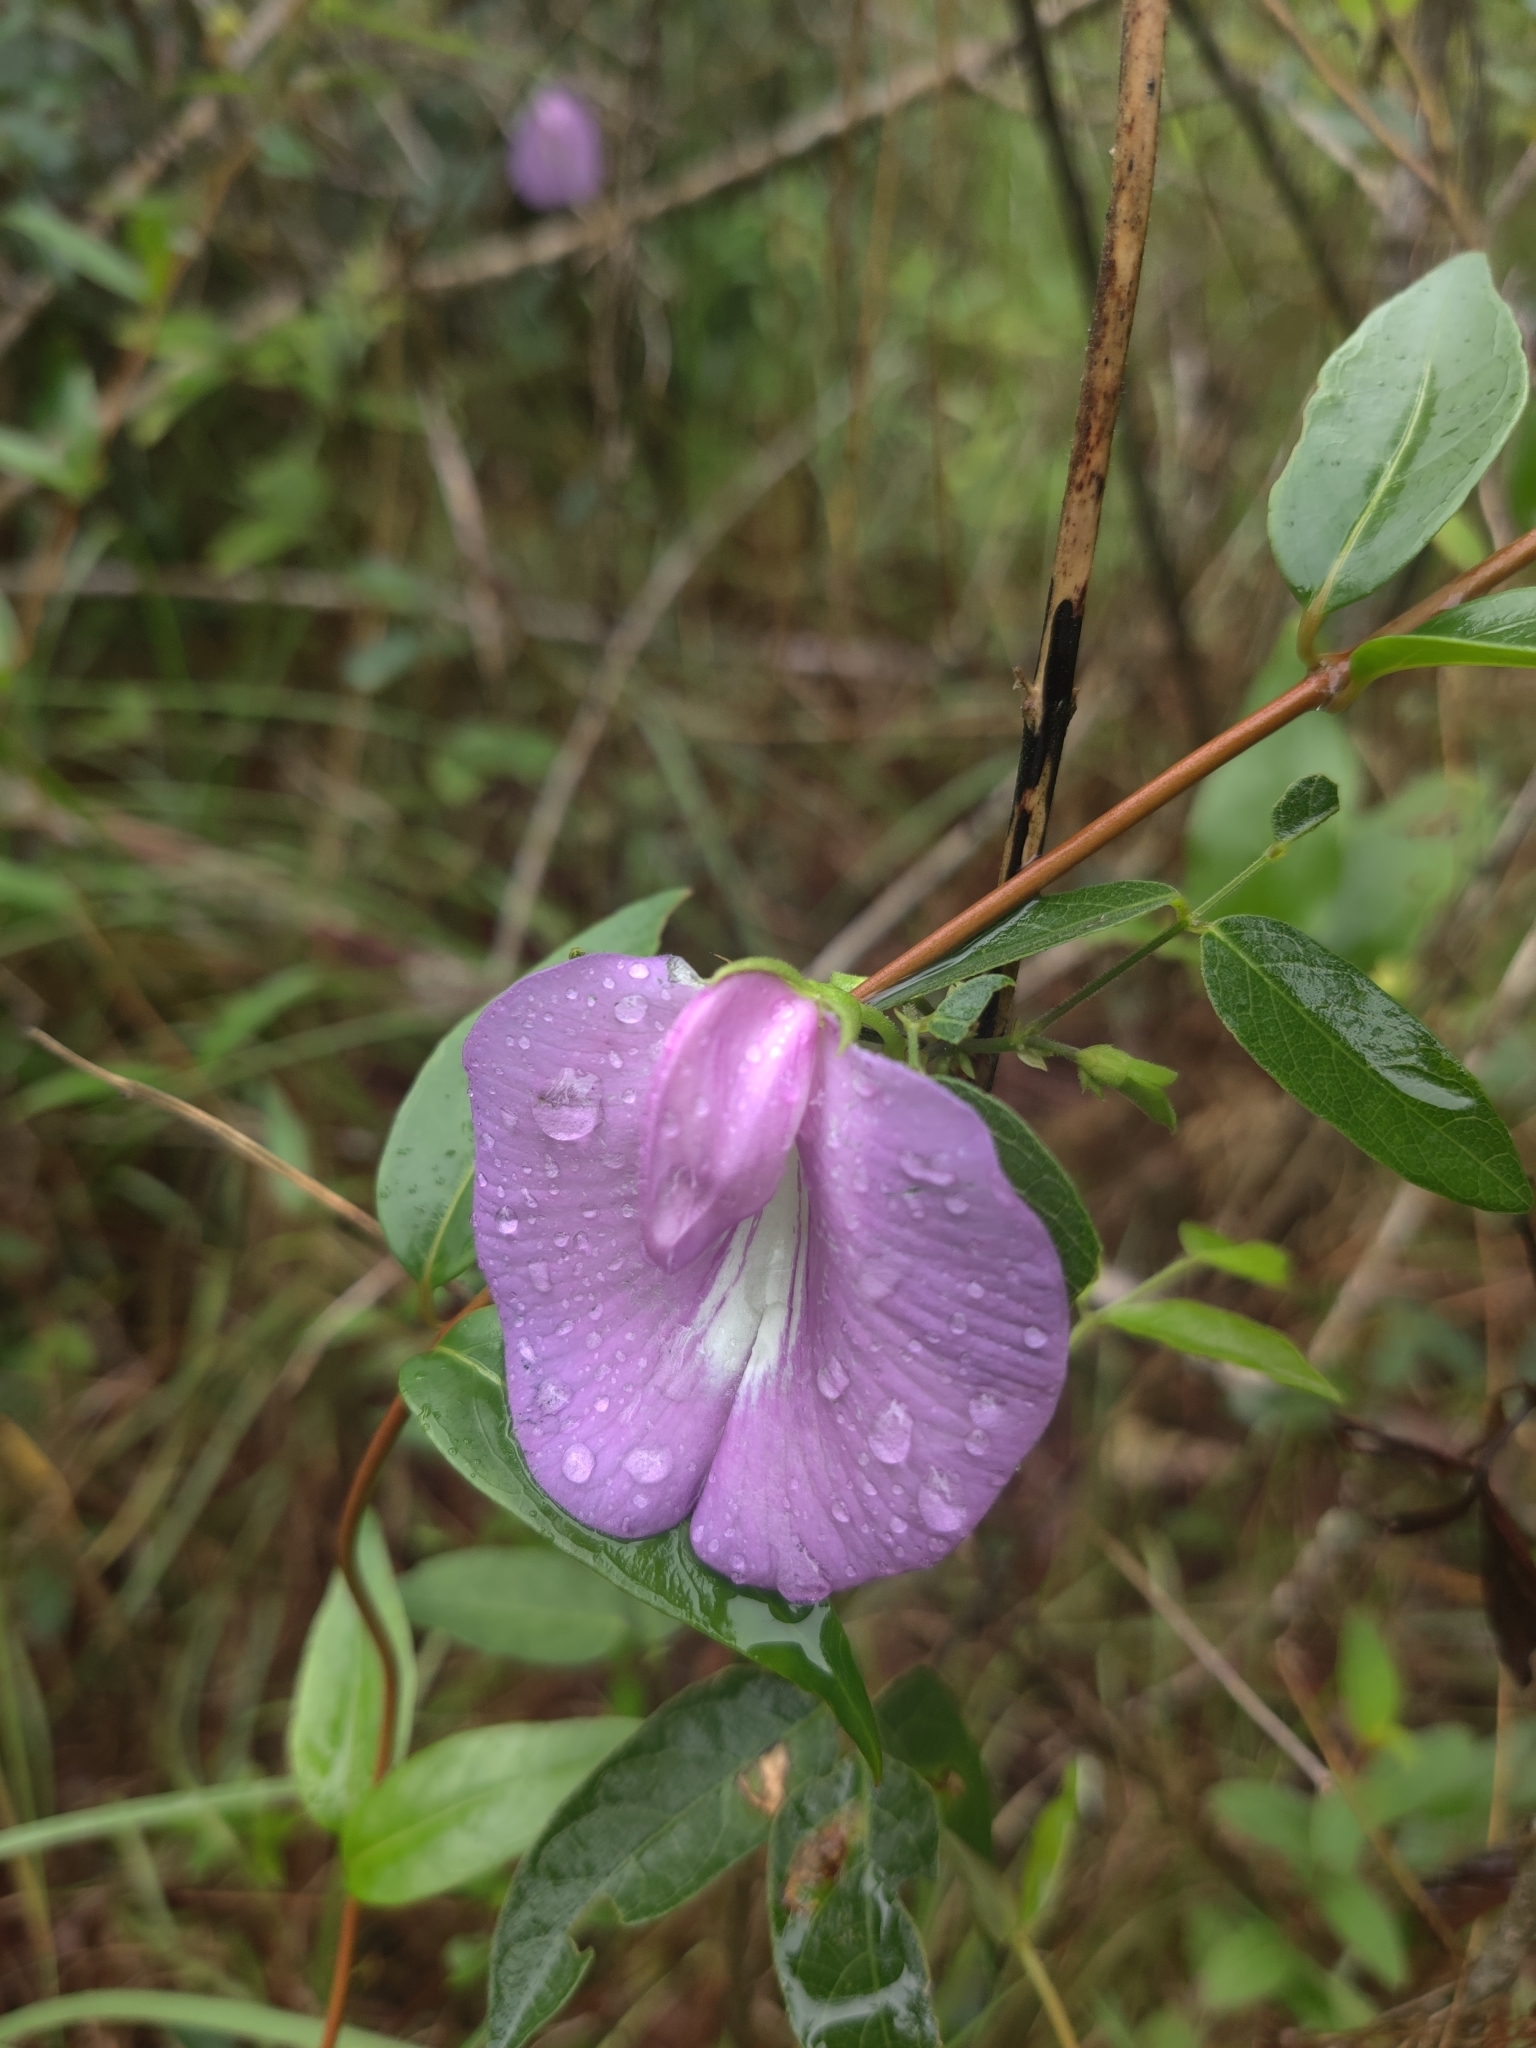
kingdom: Plantae
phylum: Tracheophyta
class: Magnoliopsida
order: Fabales
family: Fabaceae
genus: Centrosema
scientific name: Centrosema virginianum
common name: Butterfly-pea
